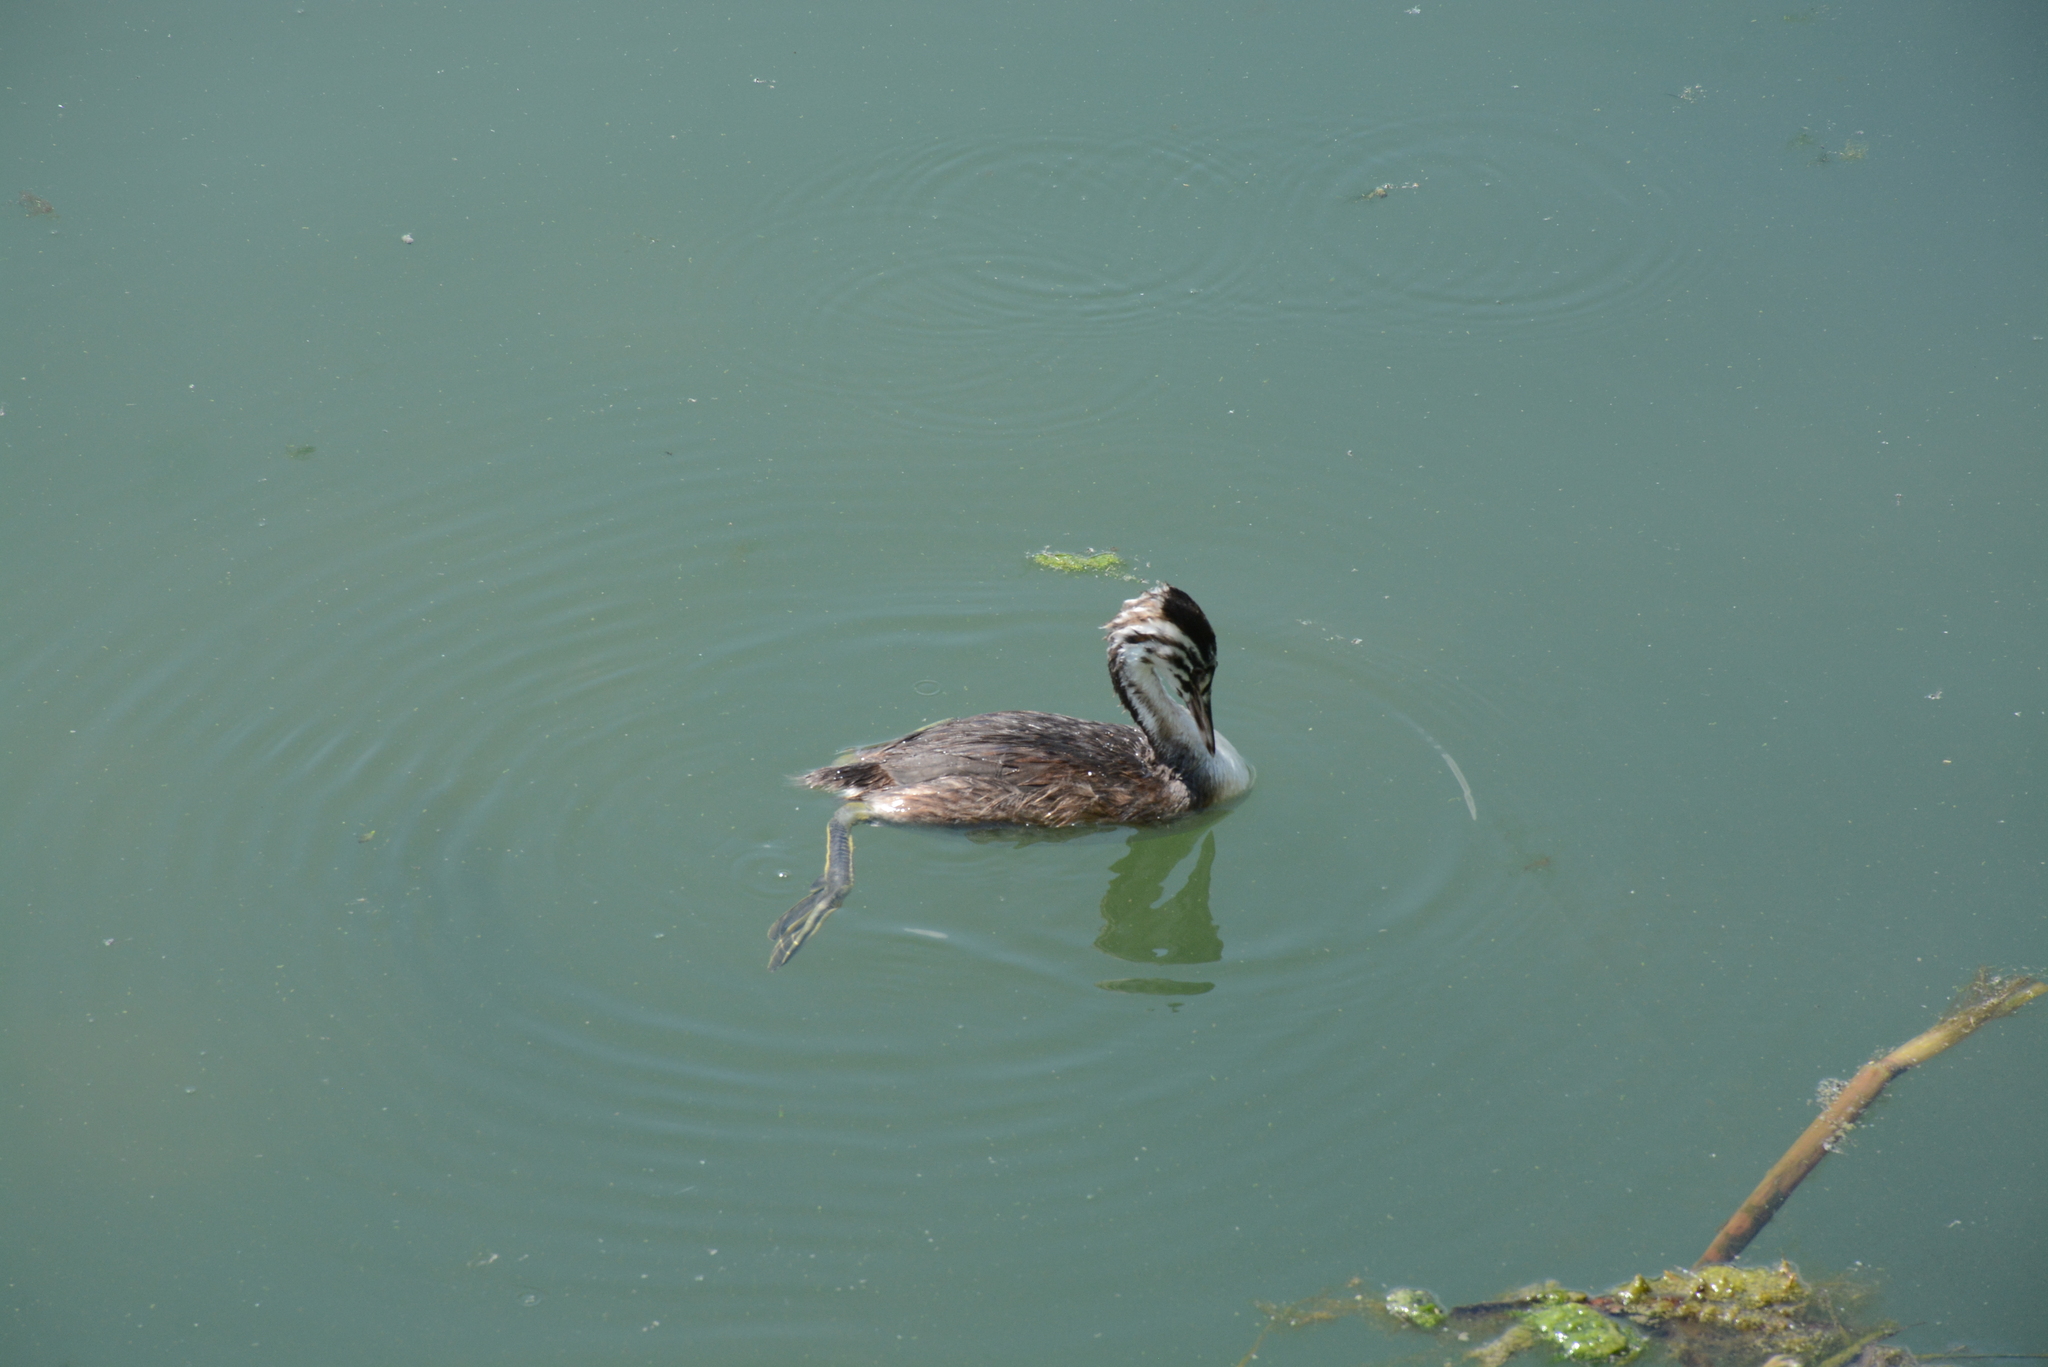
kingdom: Animalia
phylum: Chordata
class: Aves
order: Podicipediformes
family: Podicipedidae
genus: Podiceps
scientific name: Podiceps cristatus
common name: Great crested grebe
